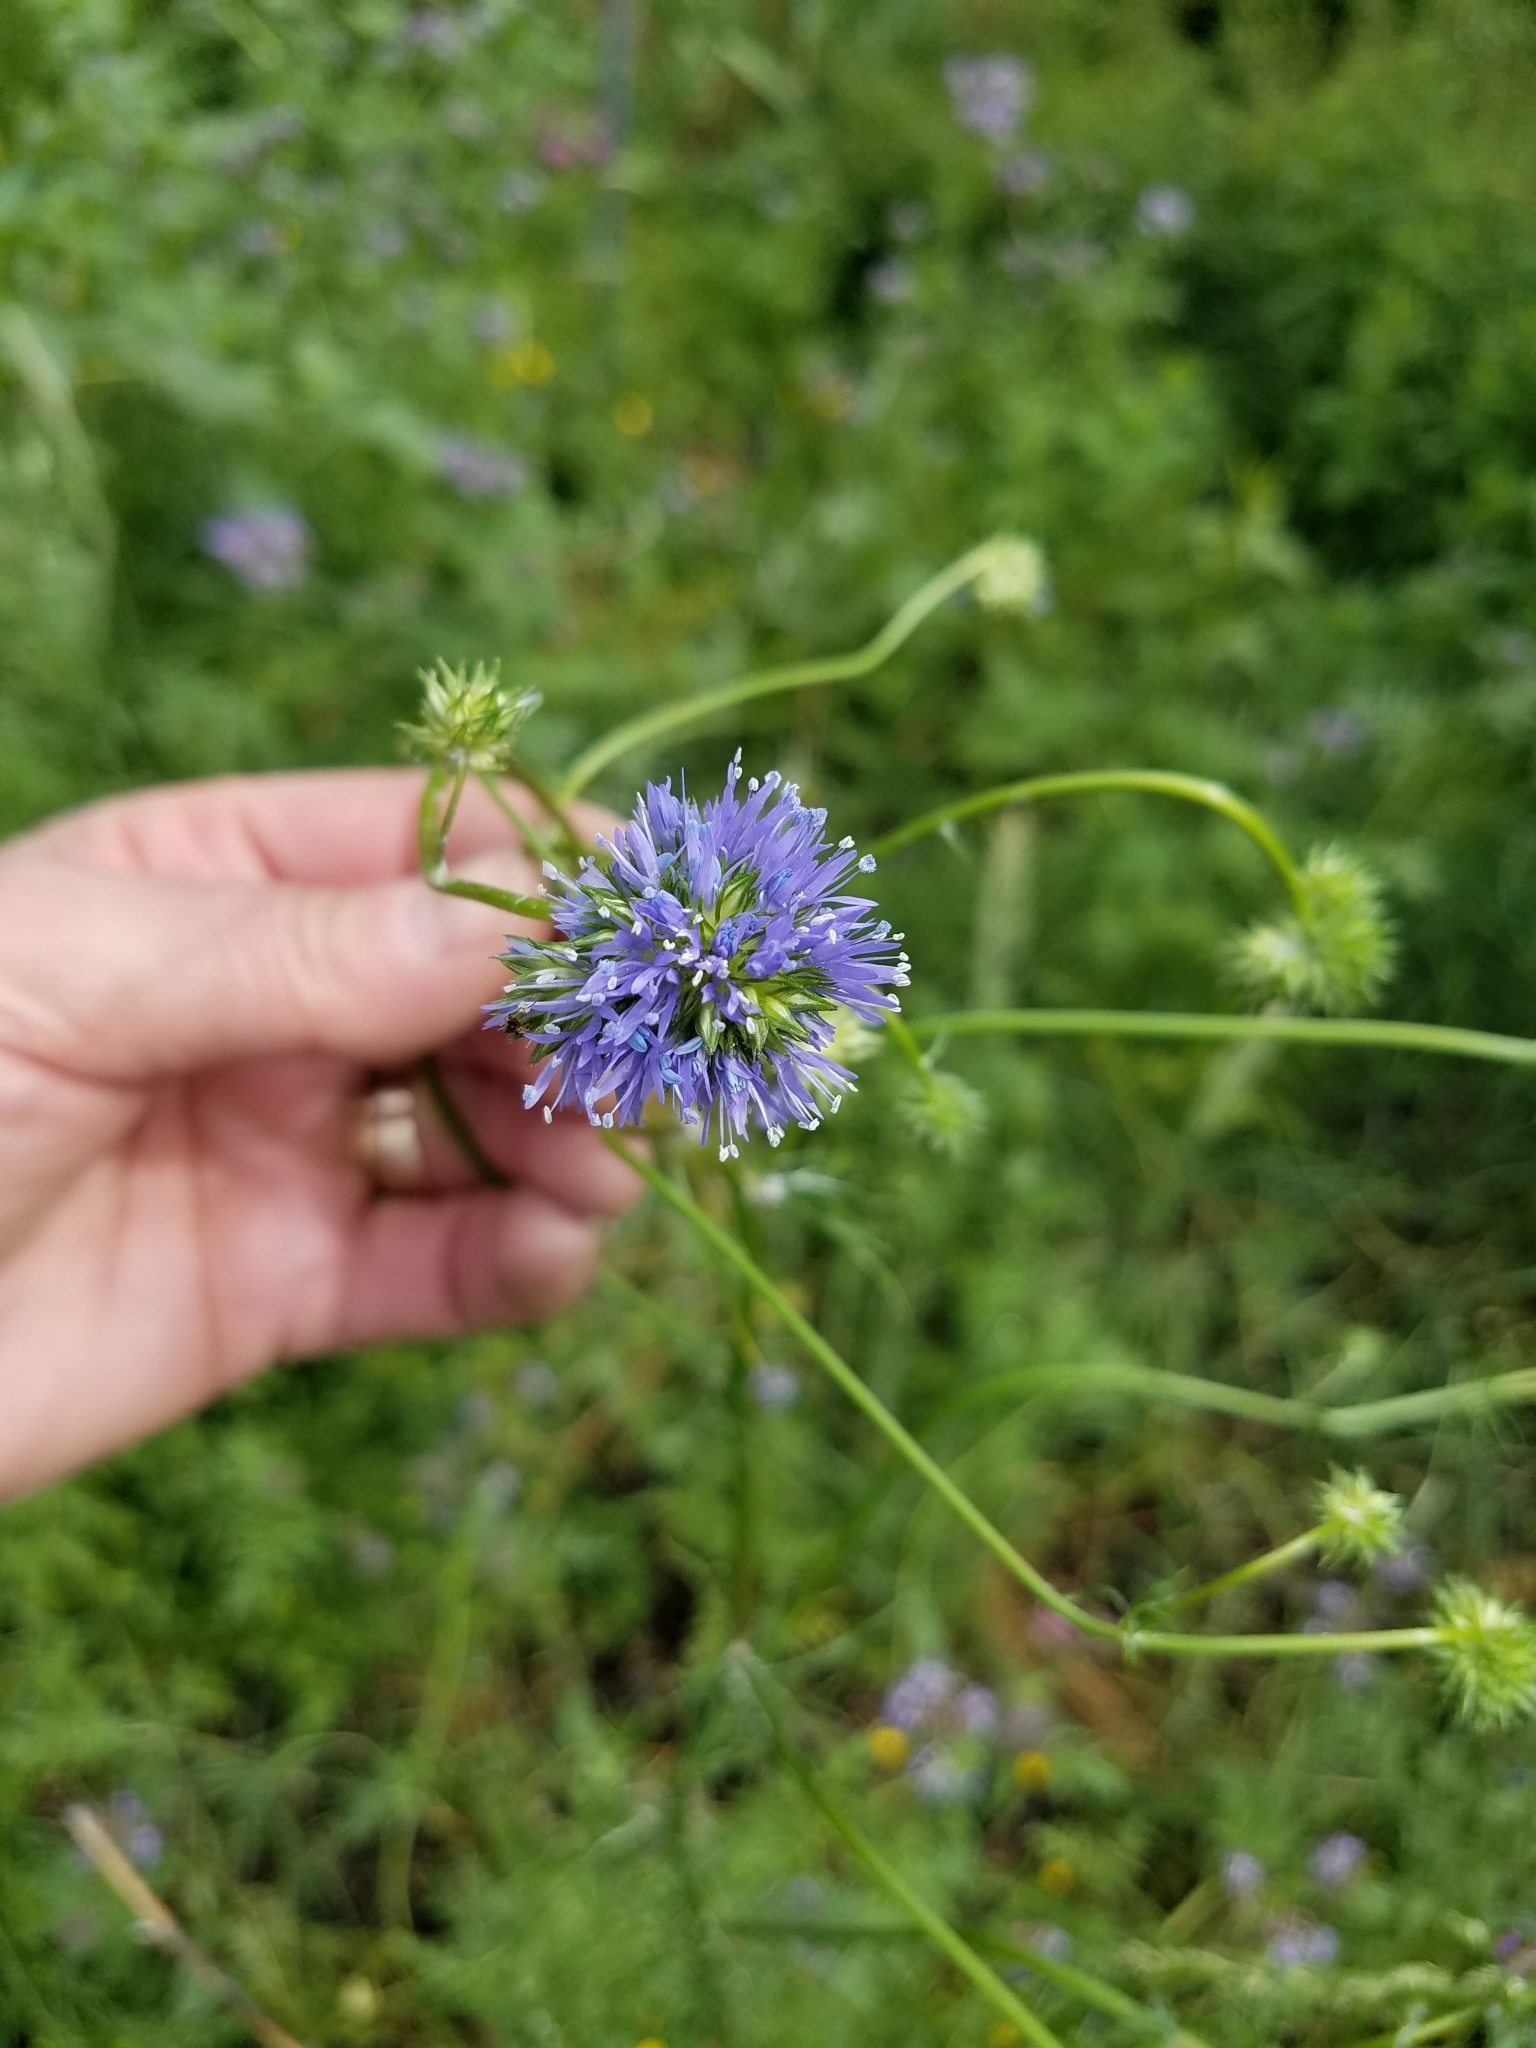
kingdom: Plantae
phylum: Tracheophyta
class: Magnoliopsida
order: Ericales
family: Polemoniaceae
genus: Gilia
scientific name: Gilia capitata
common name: Bluehead gilia
